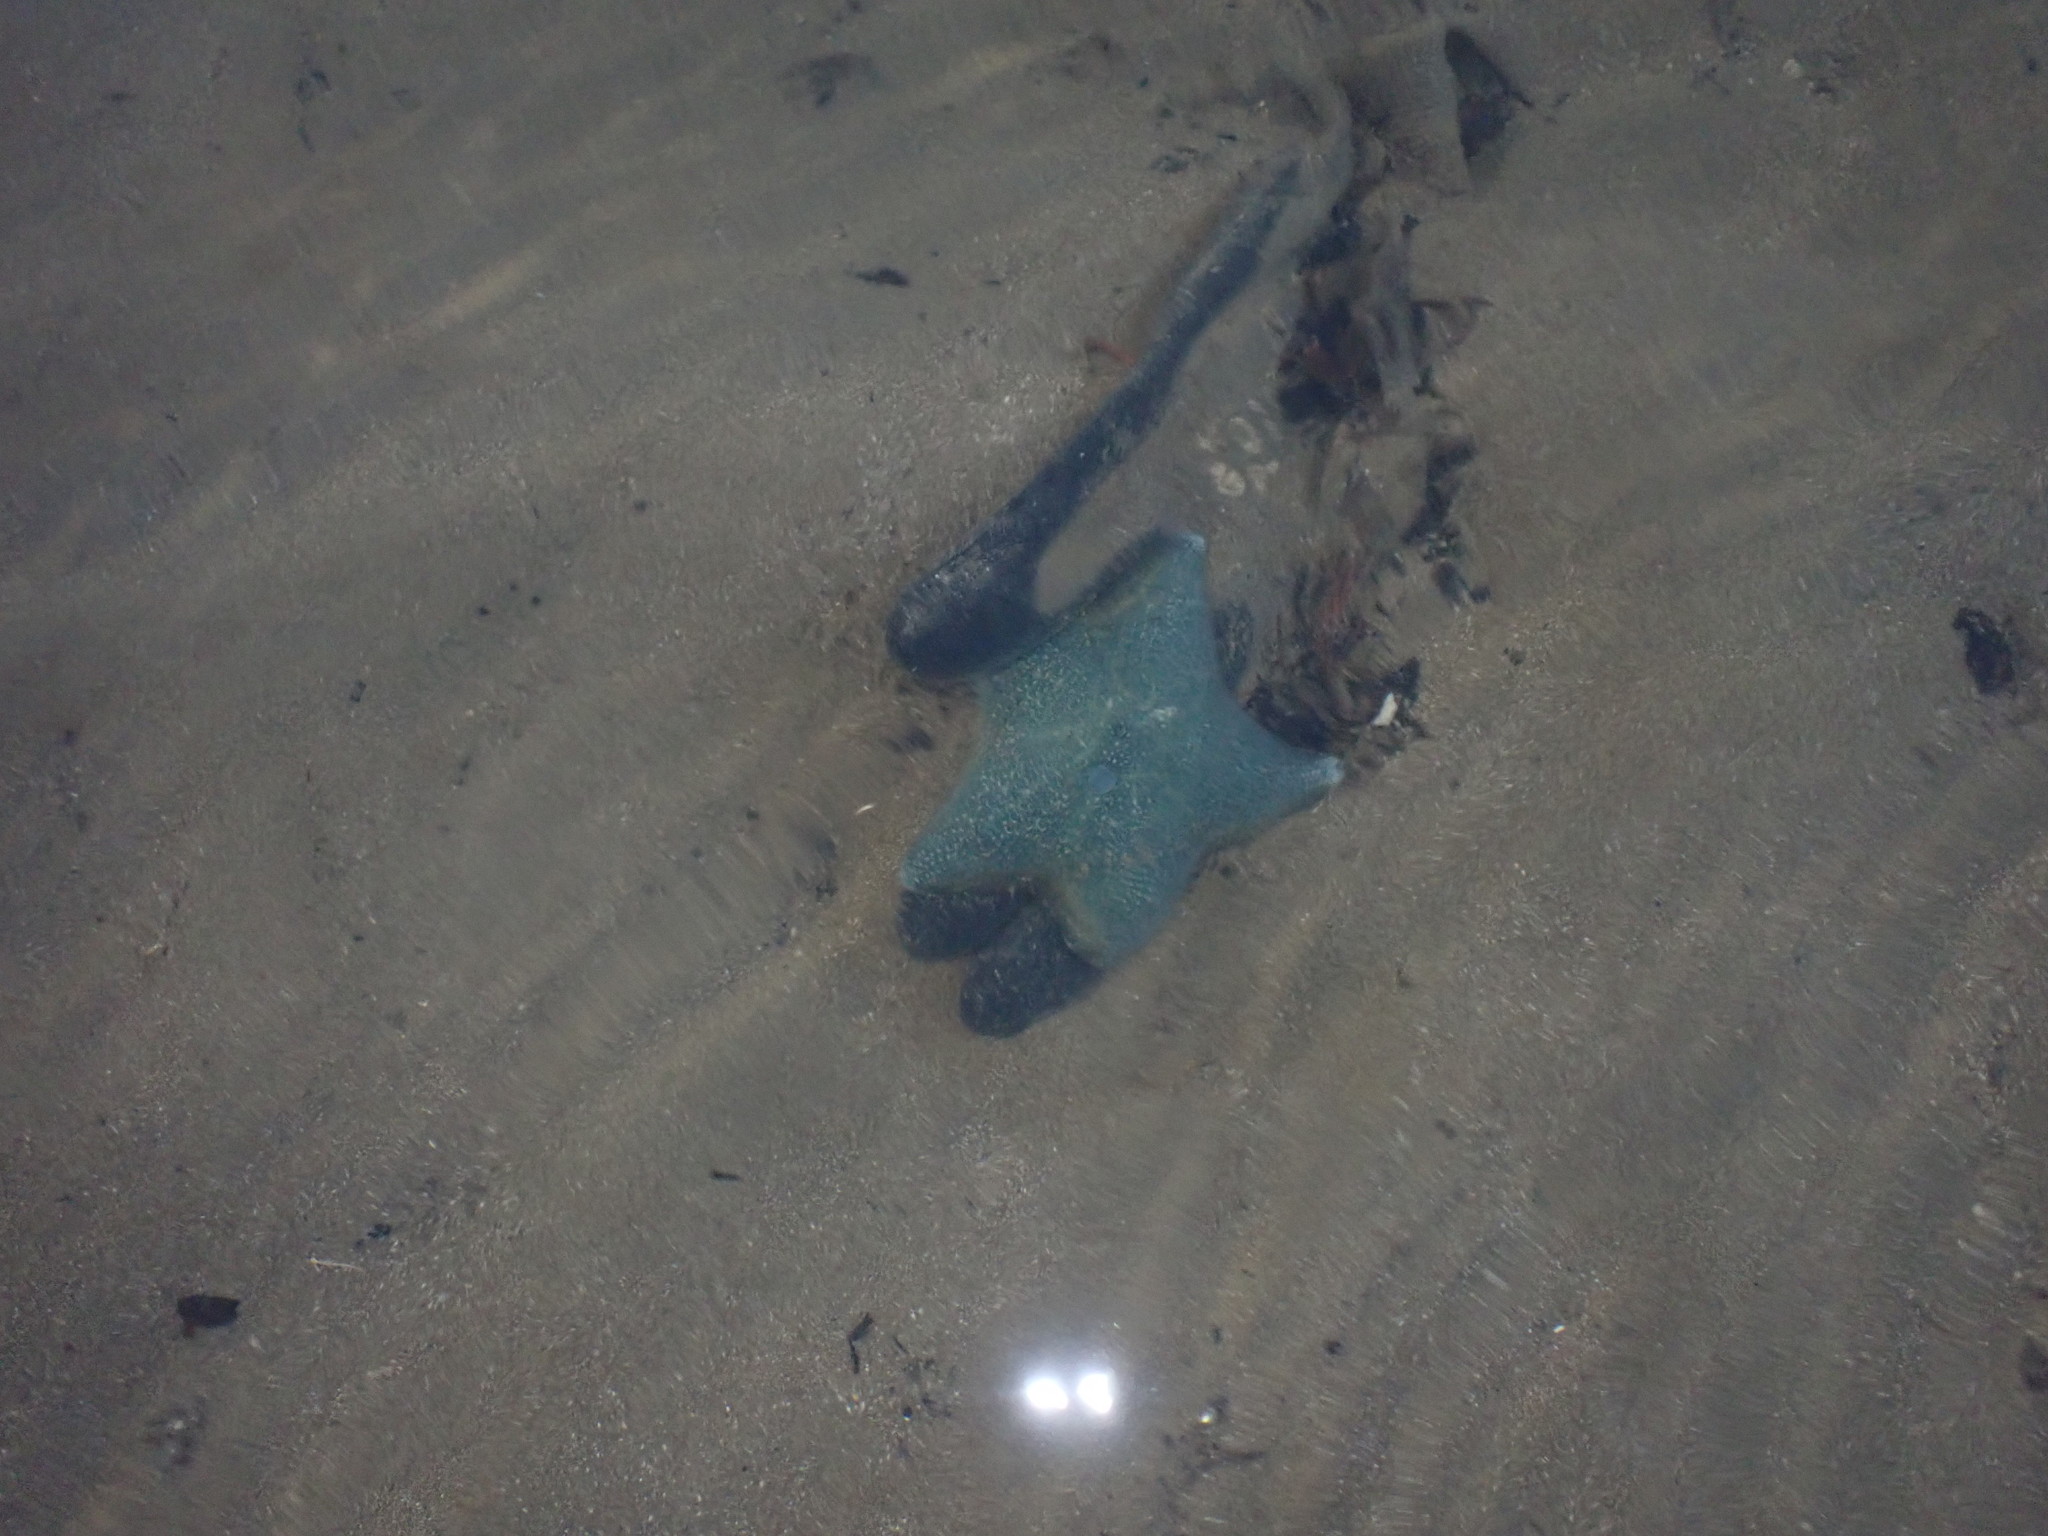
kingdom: Animalia
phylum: Echinodermata
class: Asteroidea
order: Valvatida
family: Asterinidae
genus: Patiriella
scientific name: Patiriella regularis
